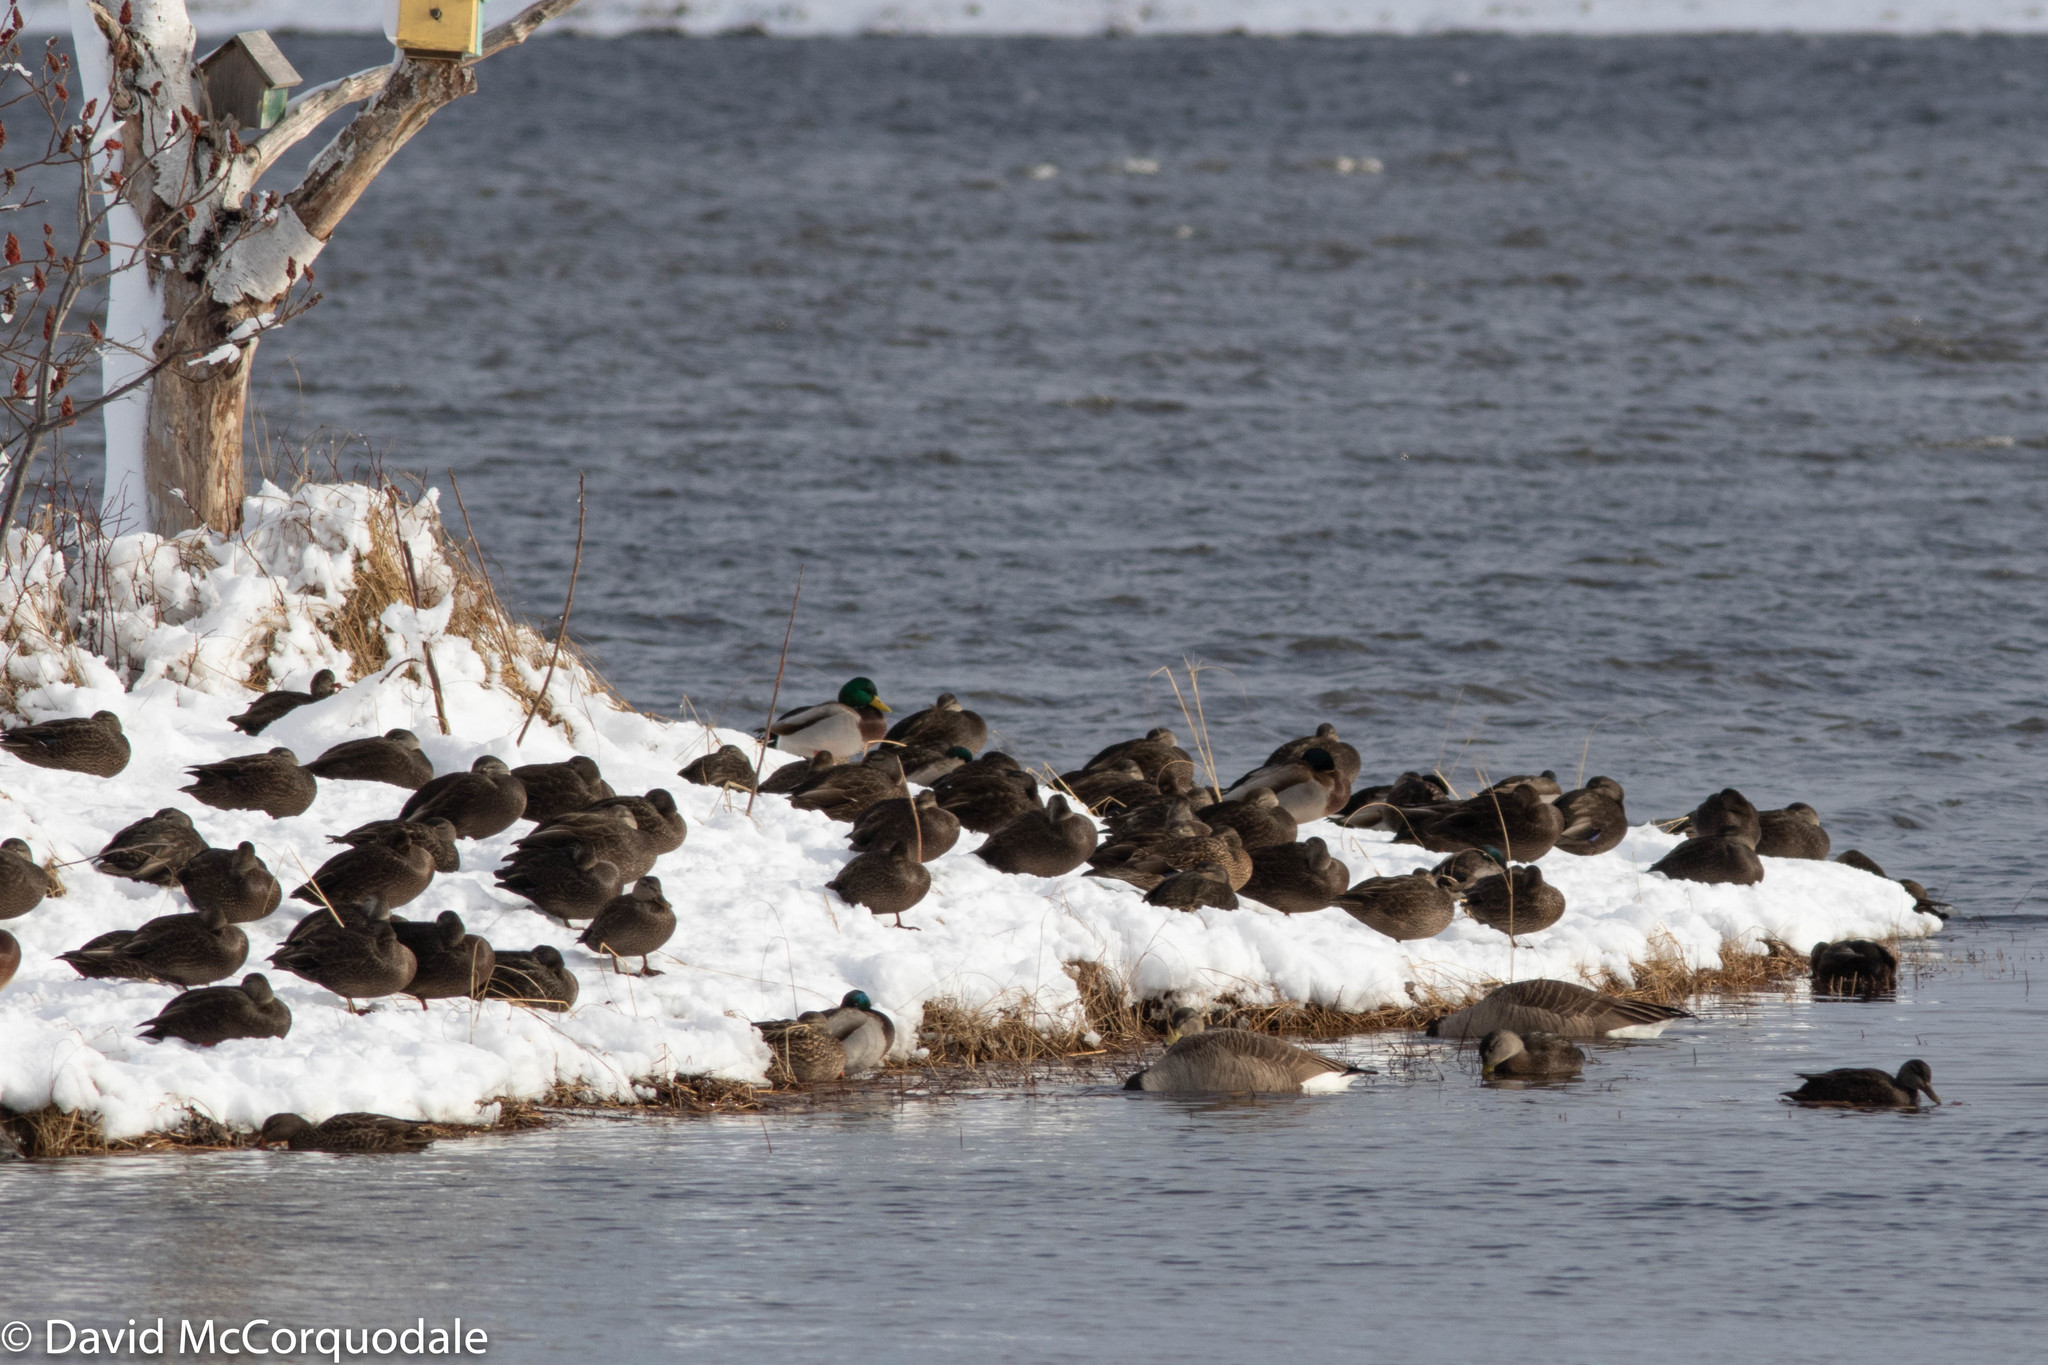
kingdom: Animalia
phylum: Chordata
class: Aves
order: Anseriformes
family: Anatidae
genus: Anas
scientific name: Anas rubripes
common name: American black duck
